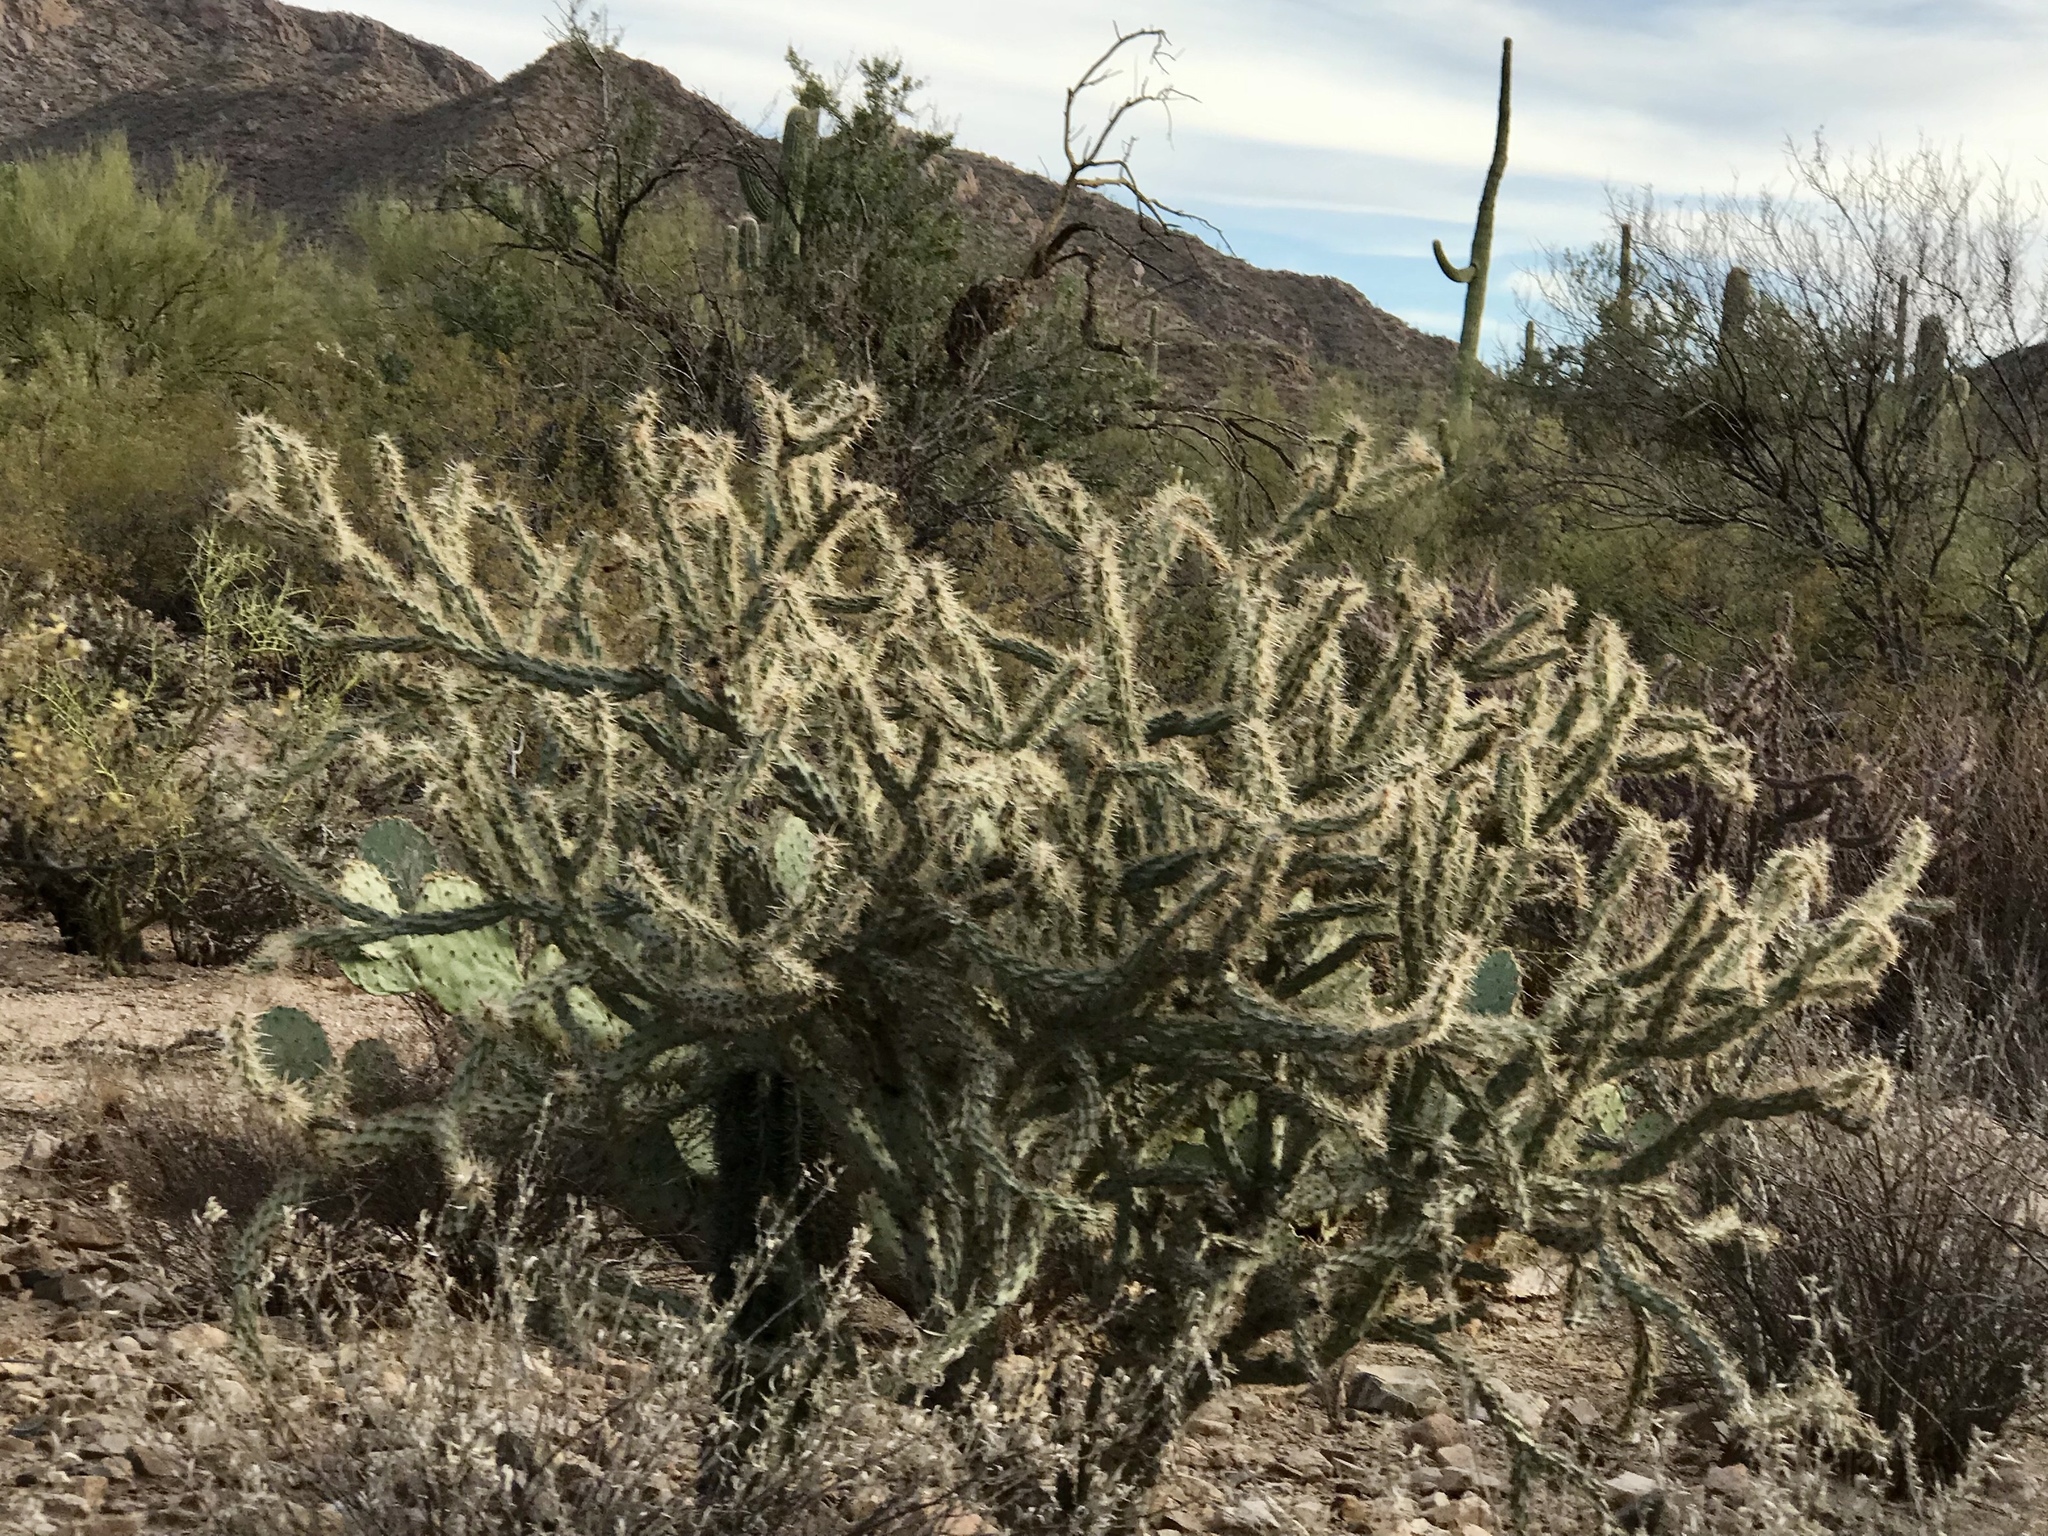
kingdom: Plantae
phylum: Tracheophyta
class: Magnoliopsida
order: Caryophyllales
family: Cactaceae
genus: Cylindropuntia
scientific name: Cylindropuntia acanthocarpa
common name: Buckhorn cholla
